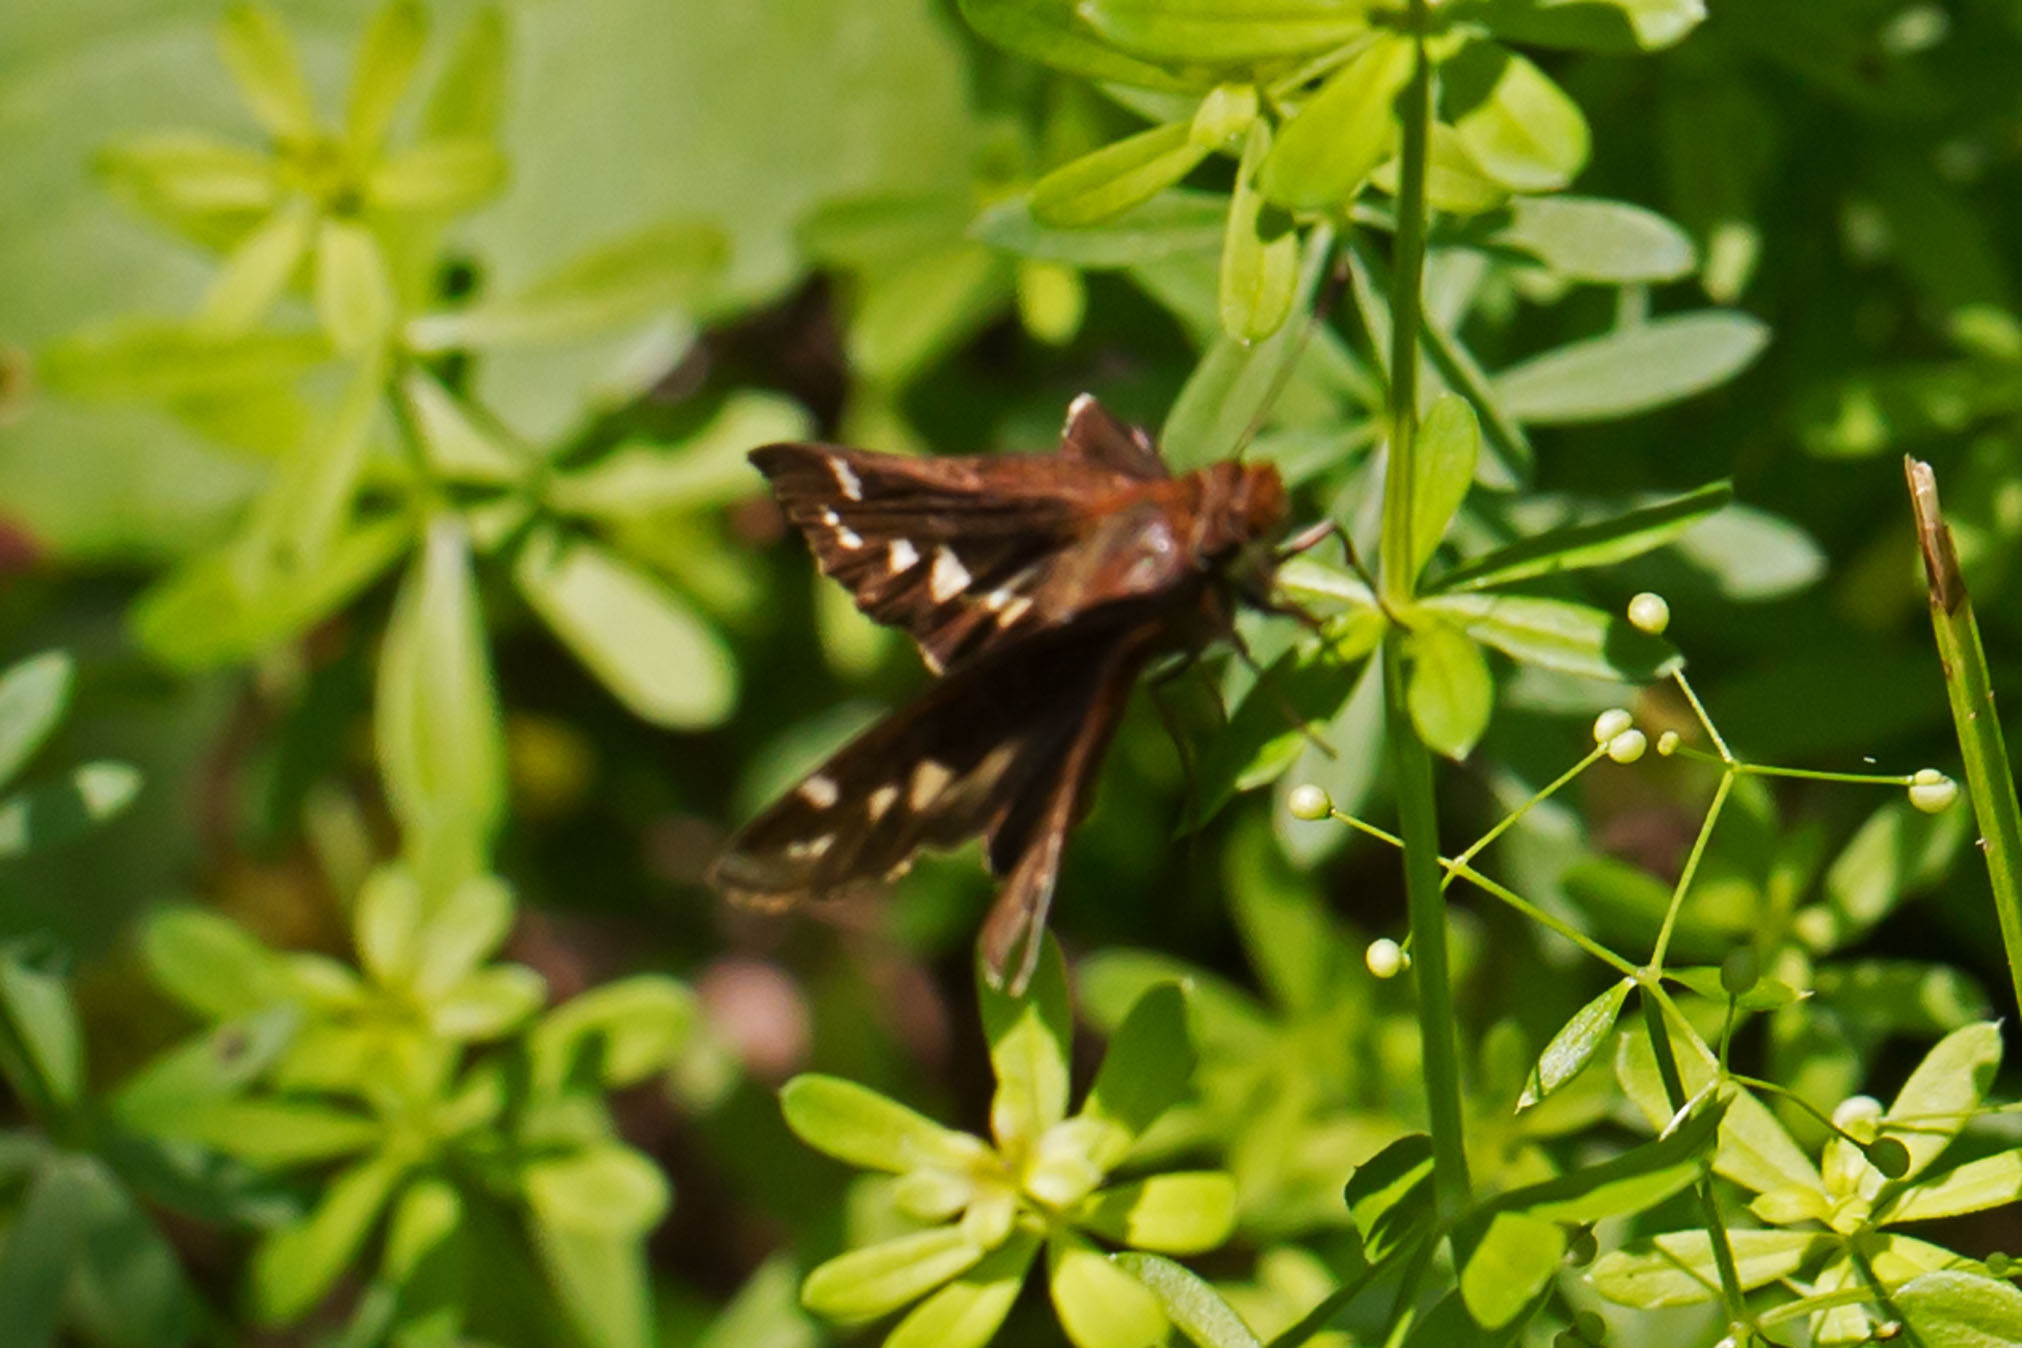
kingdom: Animalia
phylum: Arthropoda
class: Insecta
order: Lepidoptera
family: Hesperiidae
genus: Lon
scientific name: Lon zabulon
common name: Zabulon skipper
